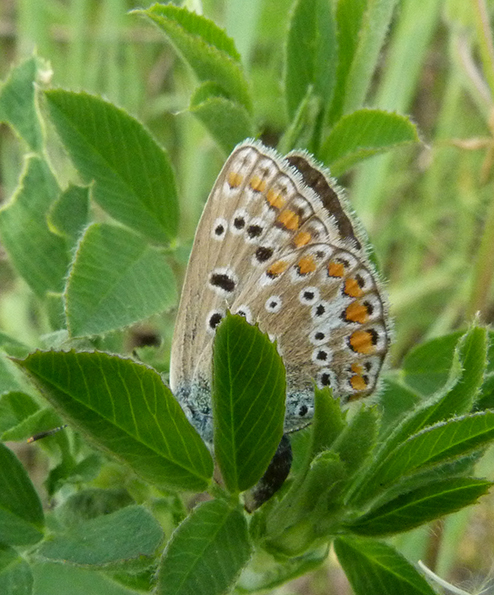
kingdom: Animalia
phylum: Arthropoda
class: Insecta
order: Lepidoptera
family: Lycaenidae
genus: Polyommatus
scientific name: Polyommatus icarus
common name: Common blue
